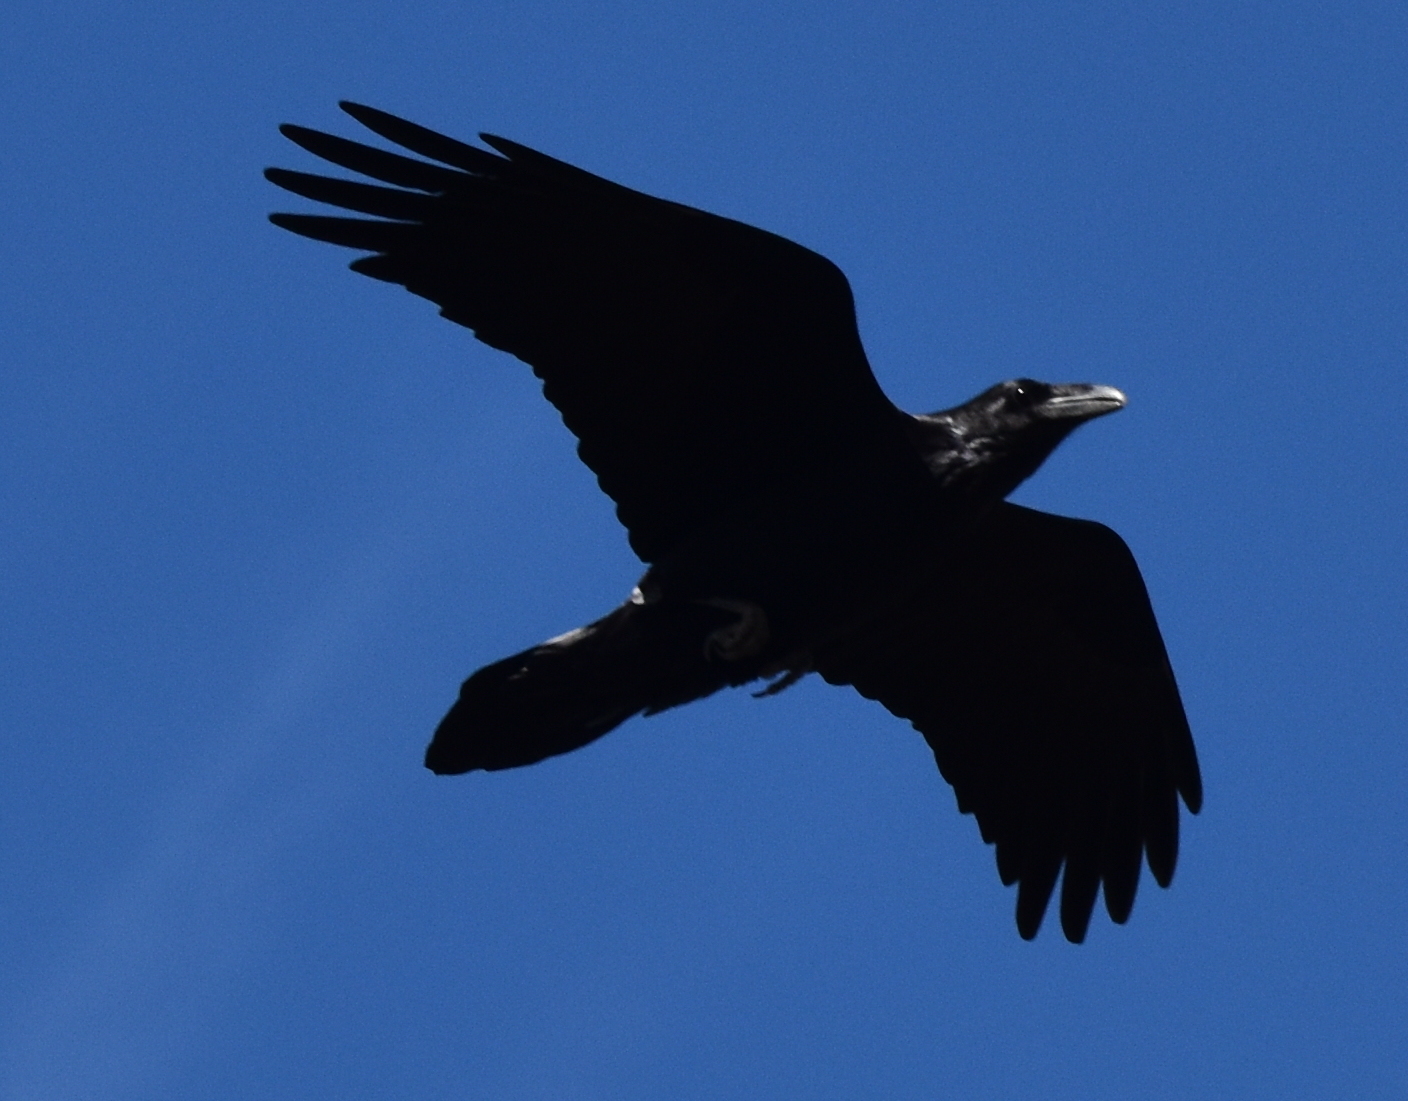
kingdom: Animalia
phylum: Chordata
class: Aves
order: Passeriformes
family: Corvidae
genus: Corvus
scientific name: Corvus corax
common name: Common raven
